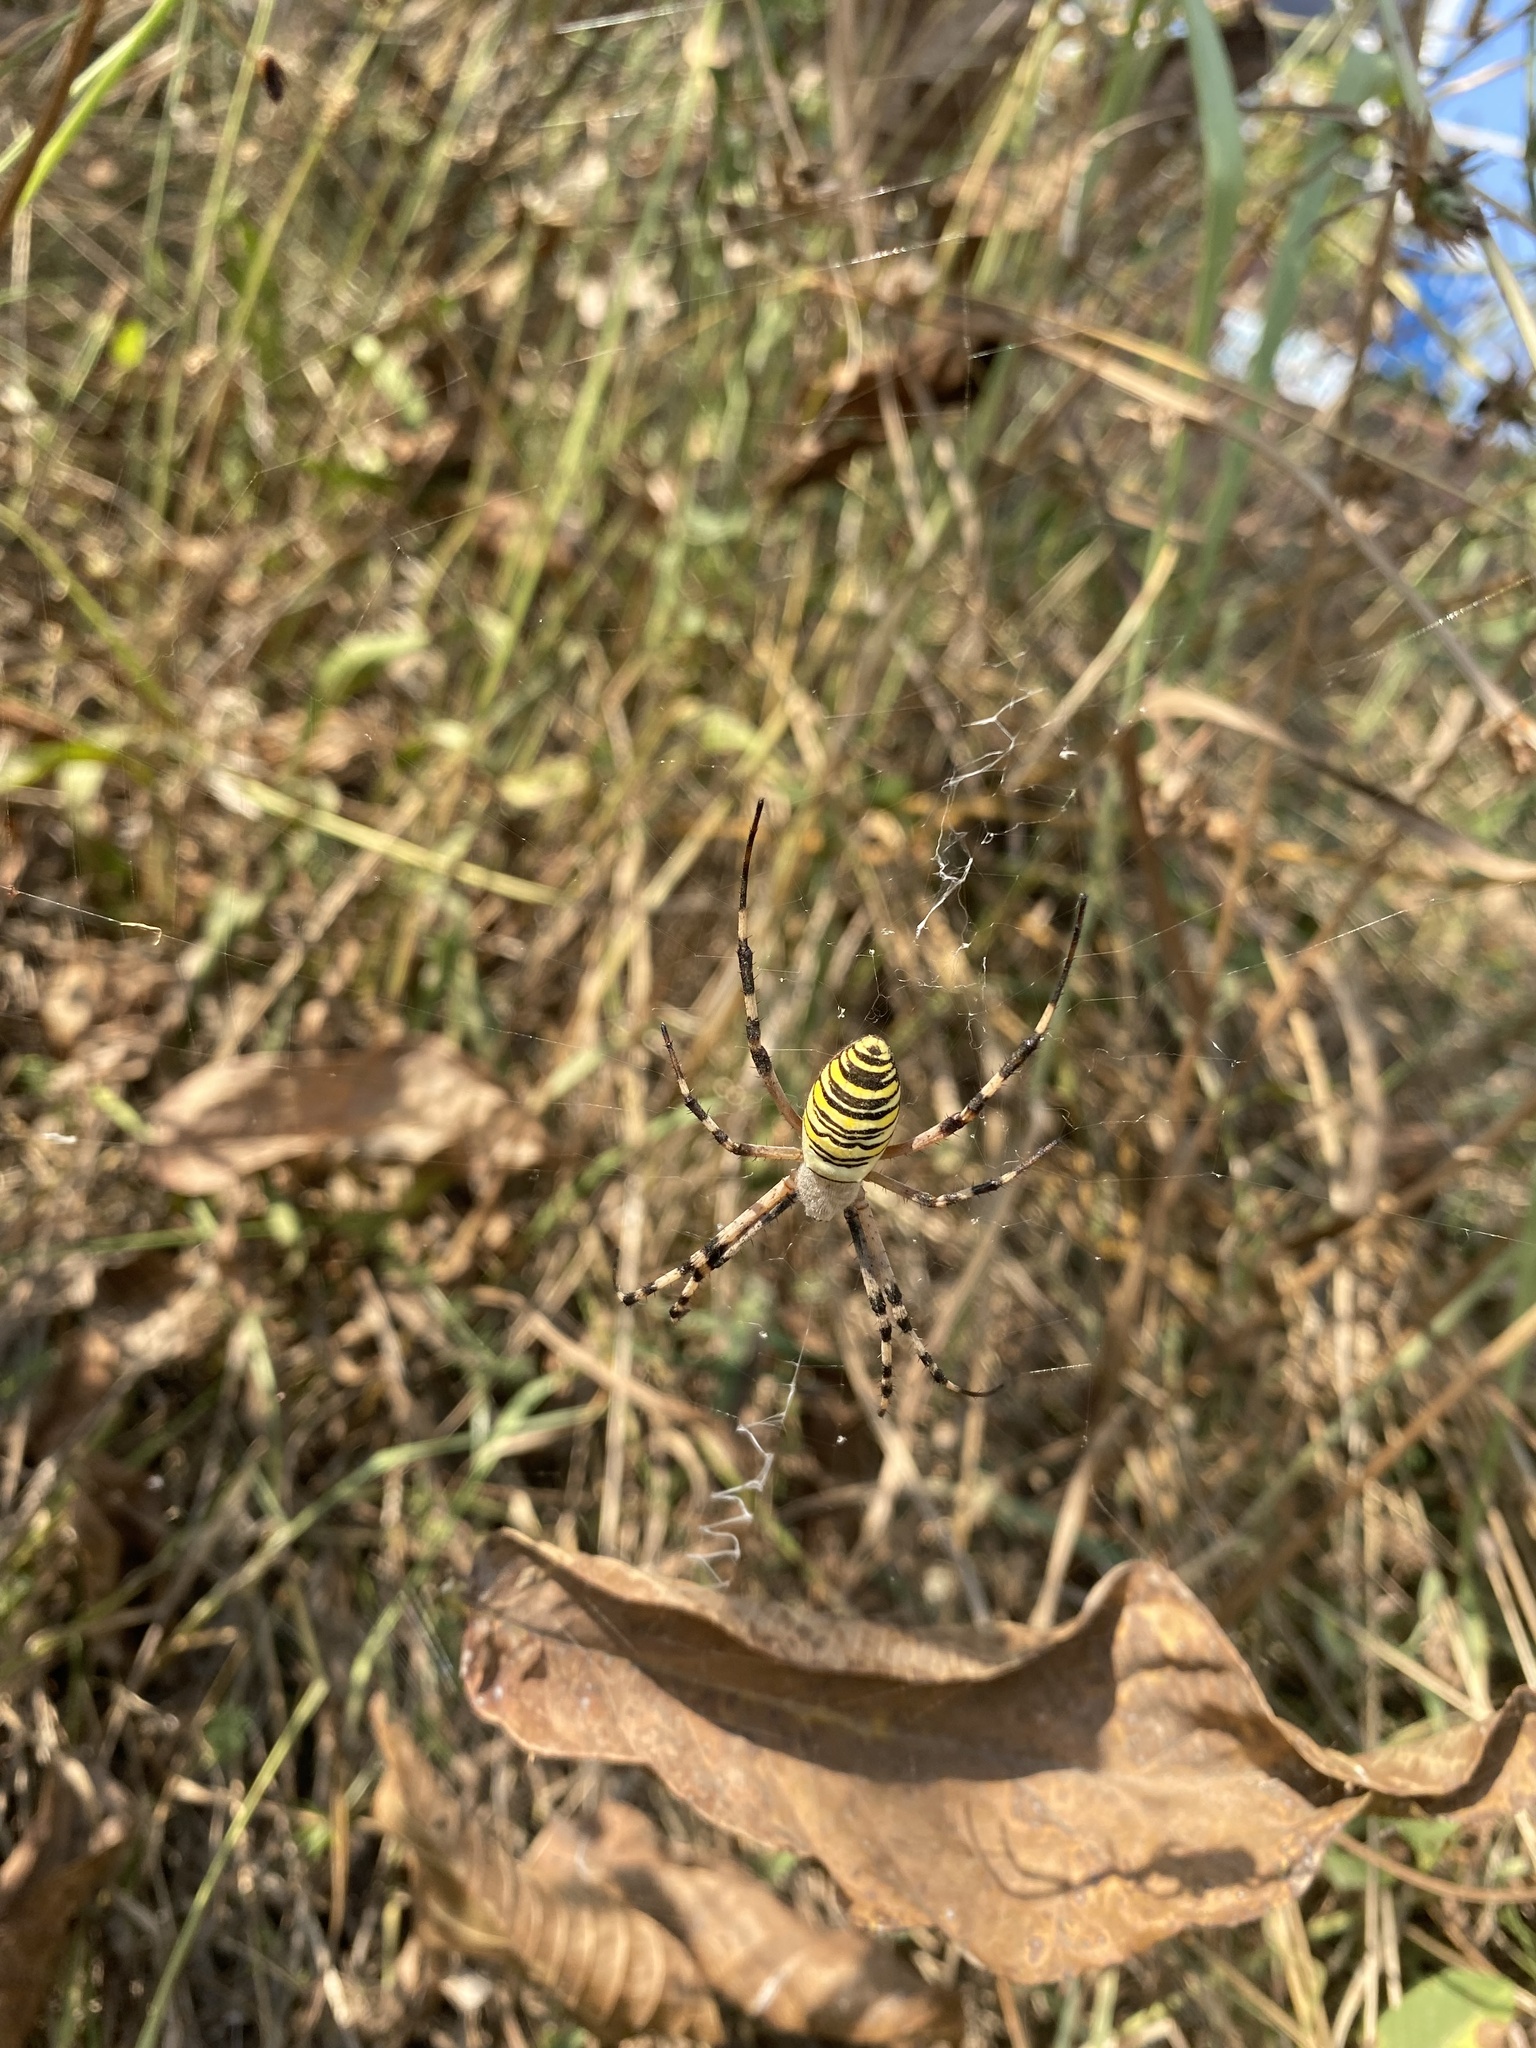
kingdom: Animalia
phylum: Arthropoda
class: Arachnida
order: Araneae
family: Araneidae
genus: Argiope
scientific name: Argiope bruennichi
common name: Wasp spider
